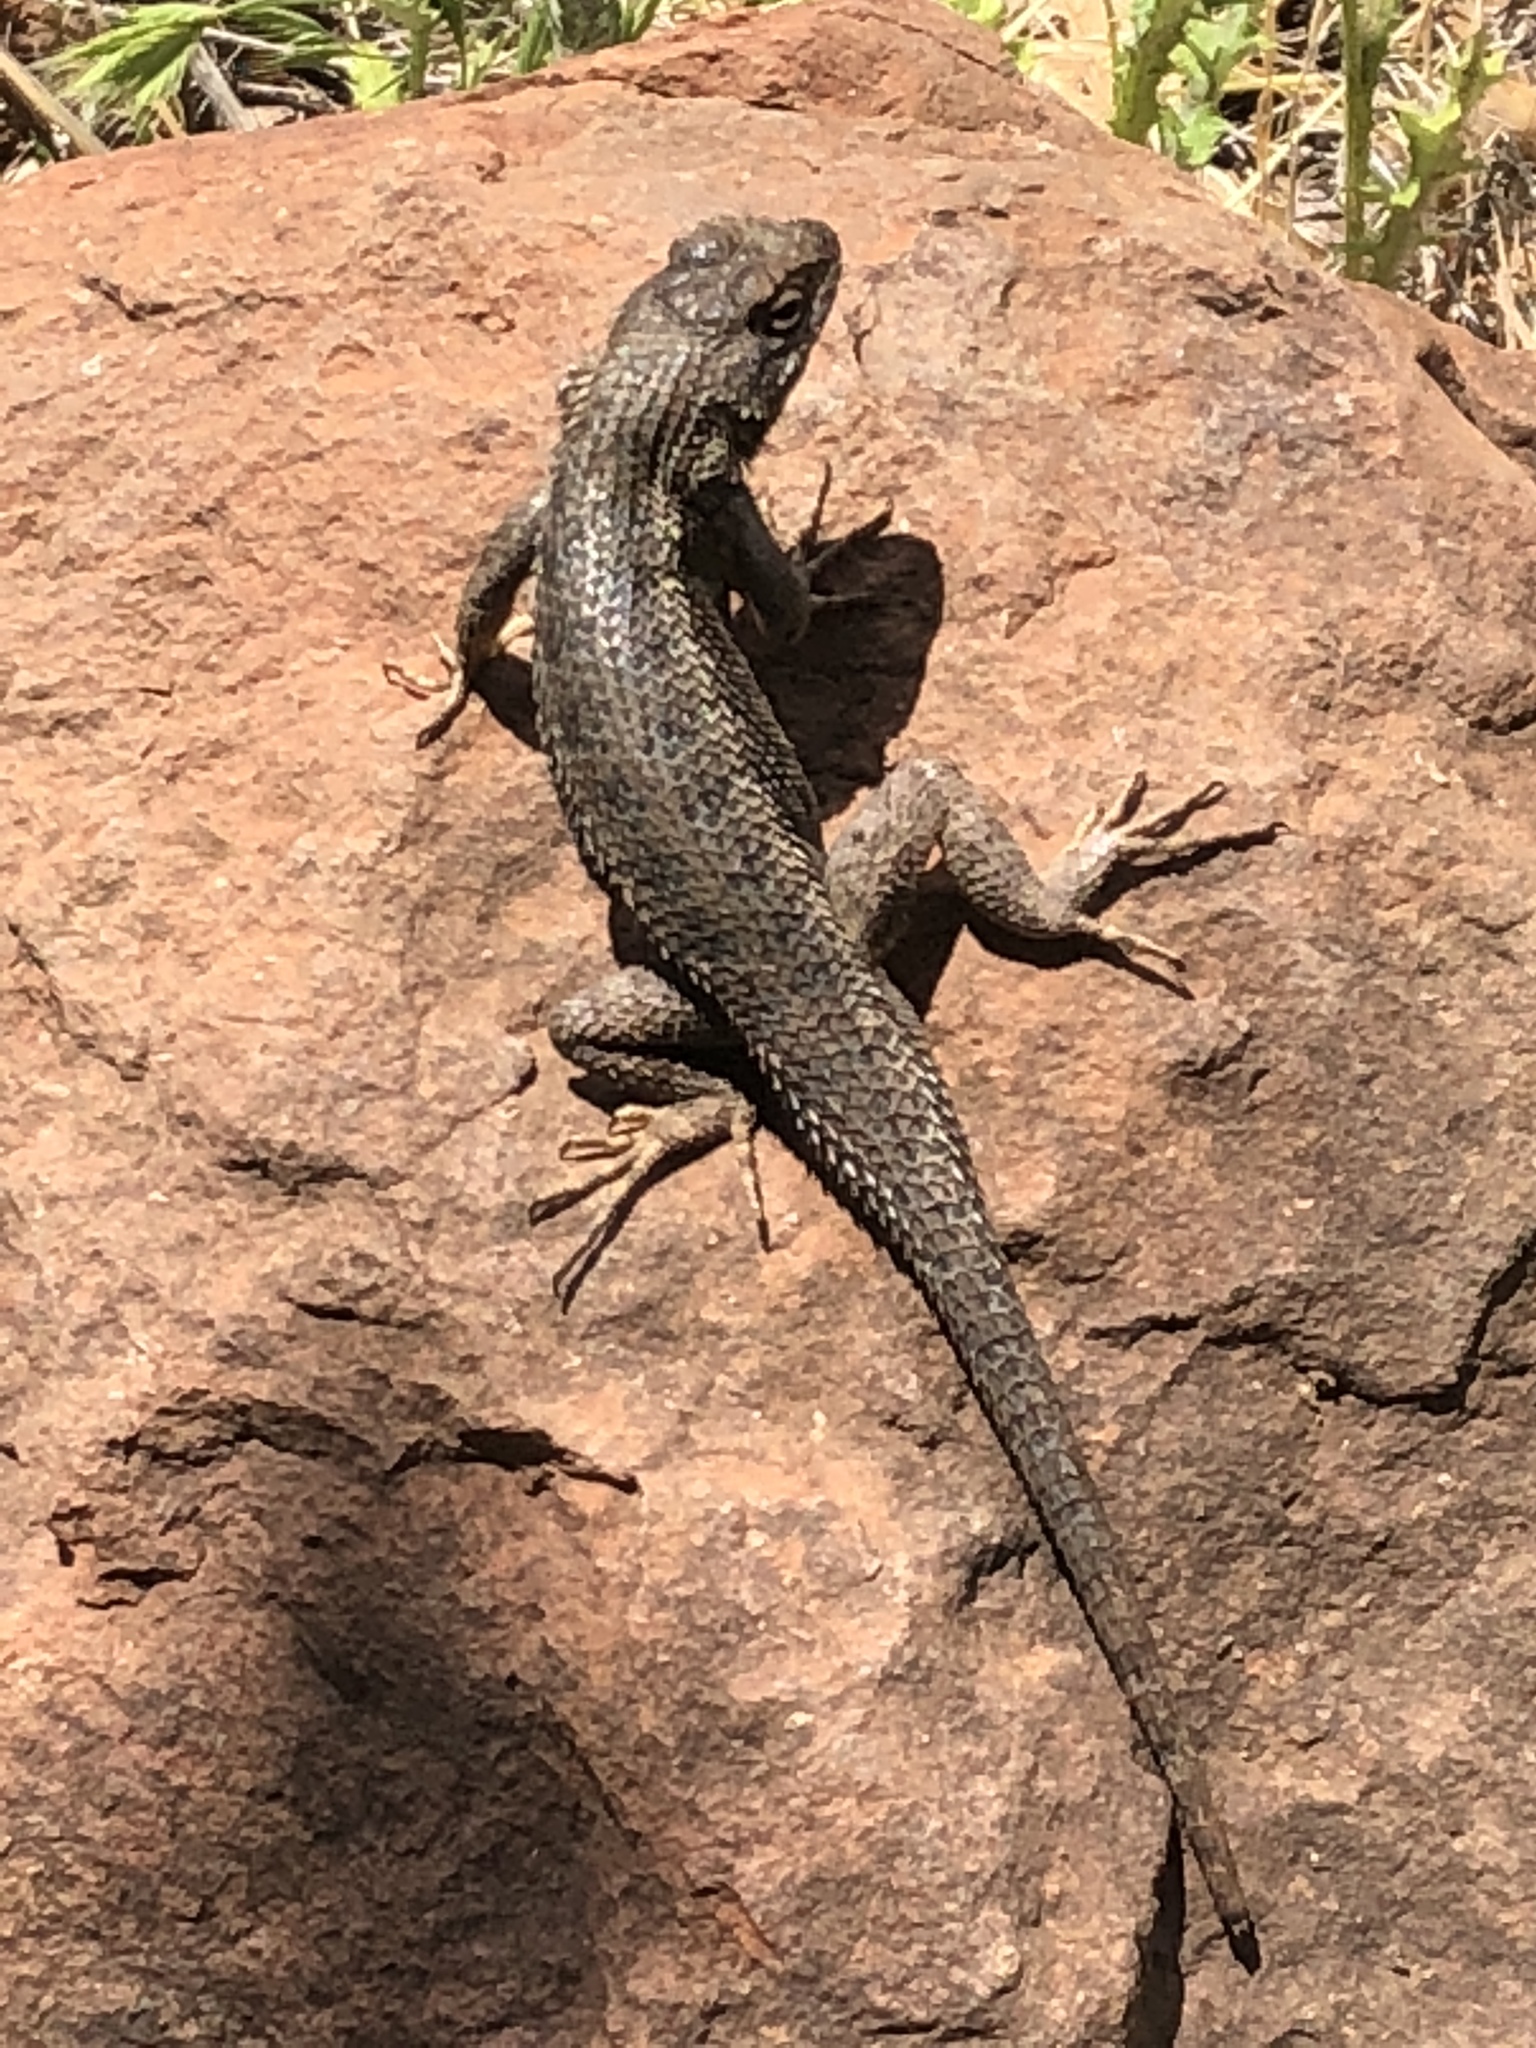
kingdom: Animalia
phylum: Chordata
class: Squamata
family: Phrynosomatidae
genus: Sceloporus
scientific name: Sceloporus occidentalis
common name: Western fence lizard
